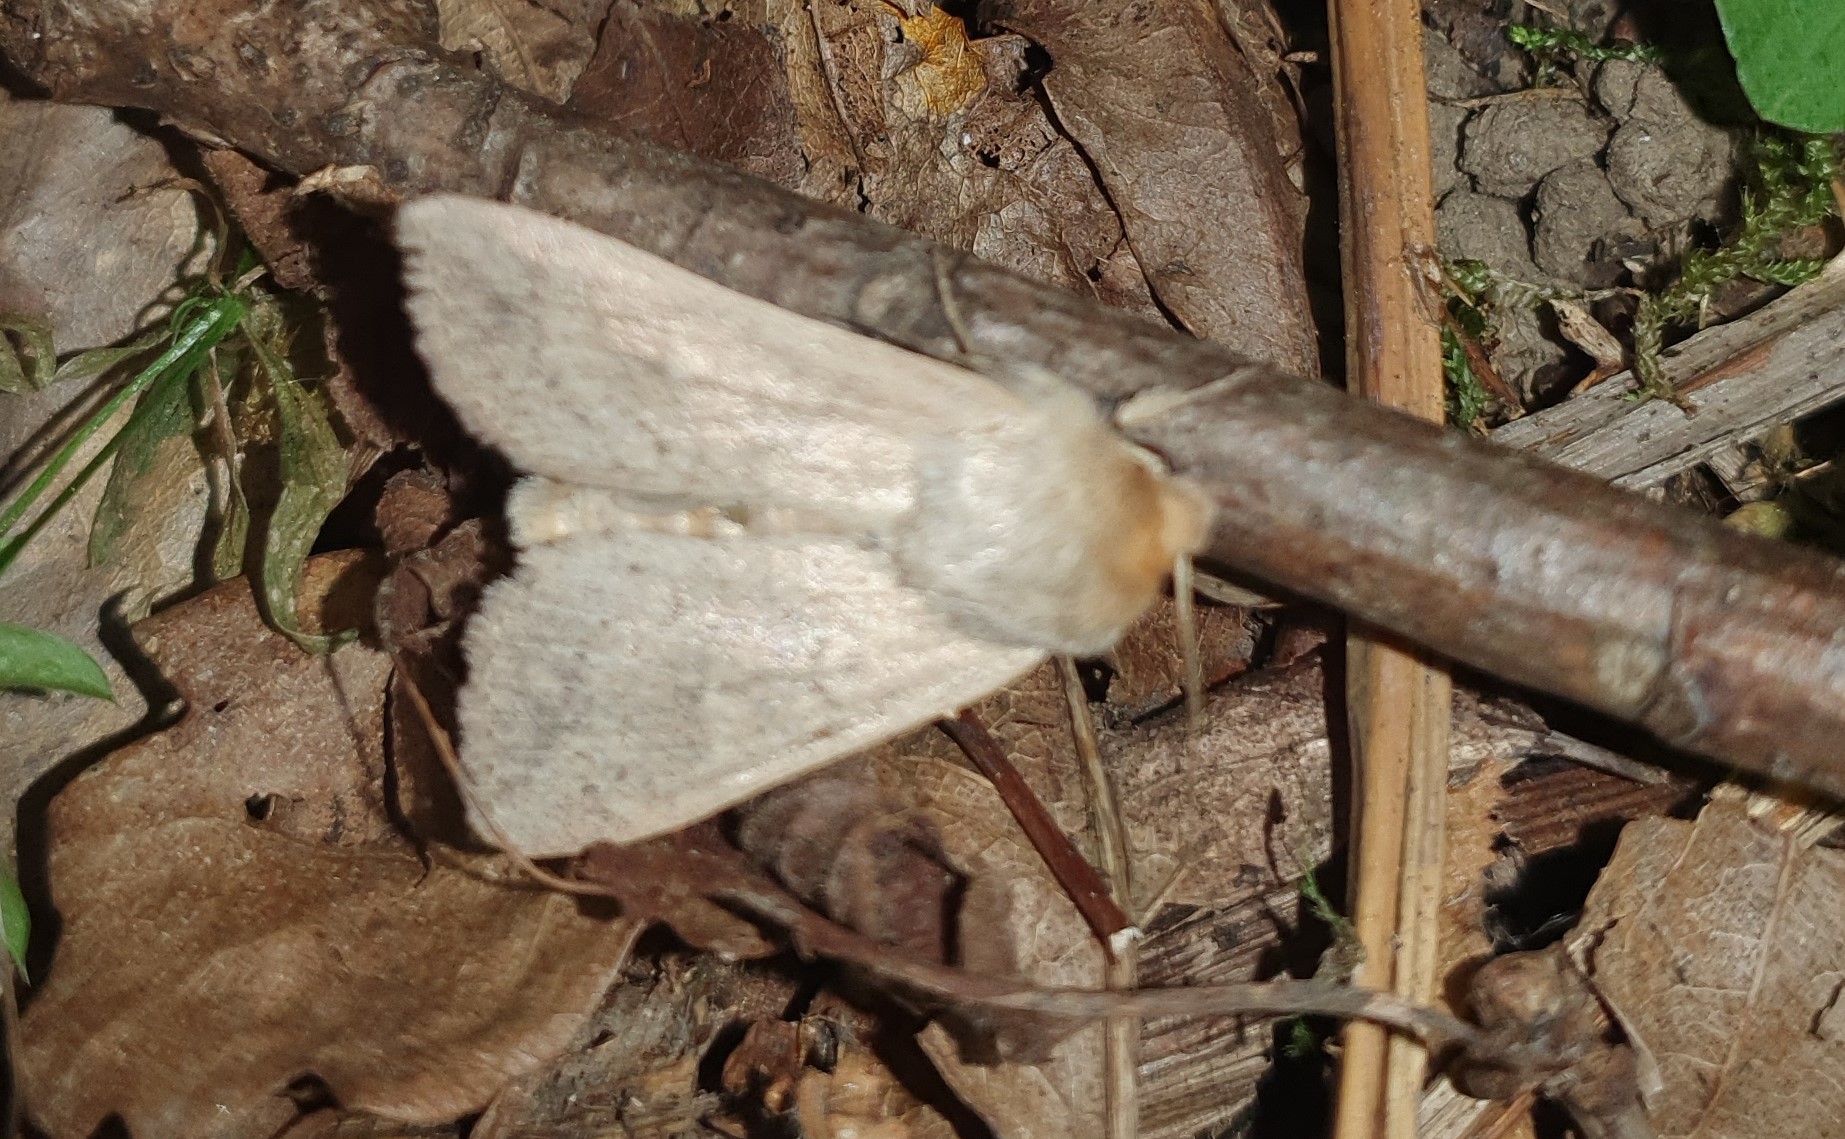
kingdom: Animalia
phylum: Arthropoda
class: Insecta
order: Lepidoptera
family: Noctuidae
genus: Mythimna
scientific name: Mythimna ferrago
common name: Clay
